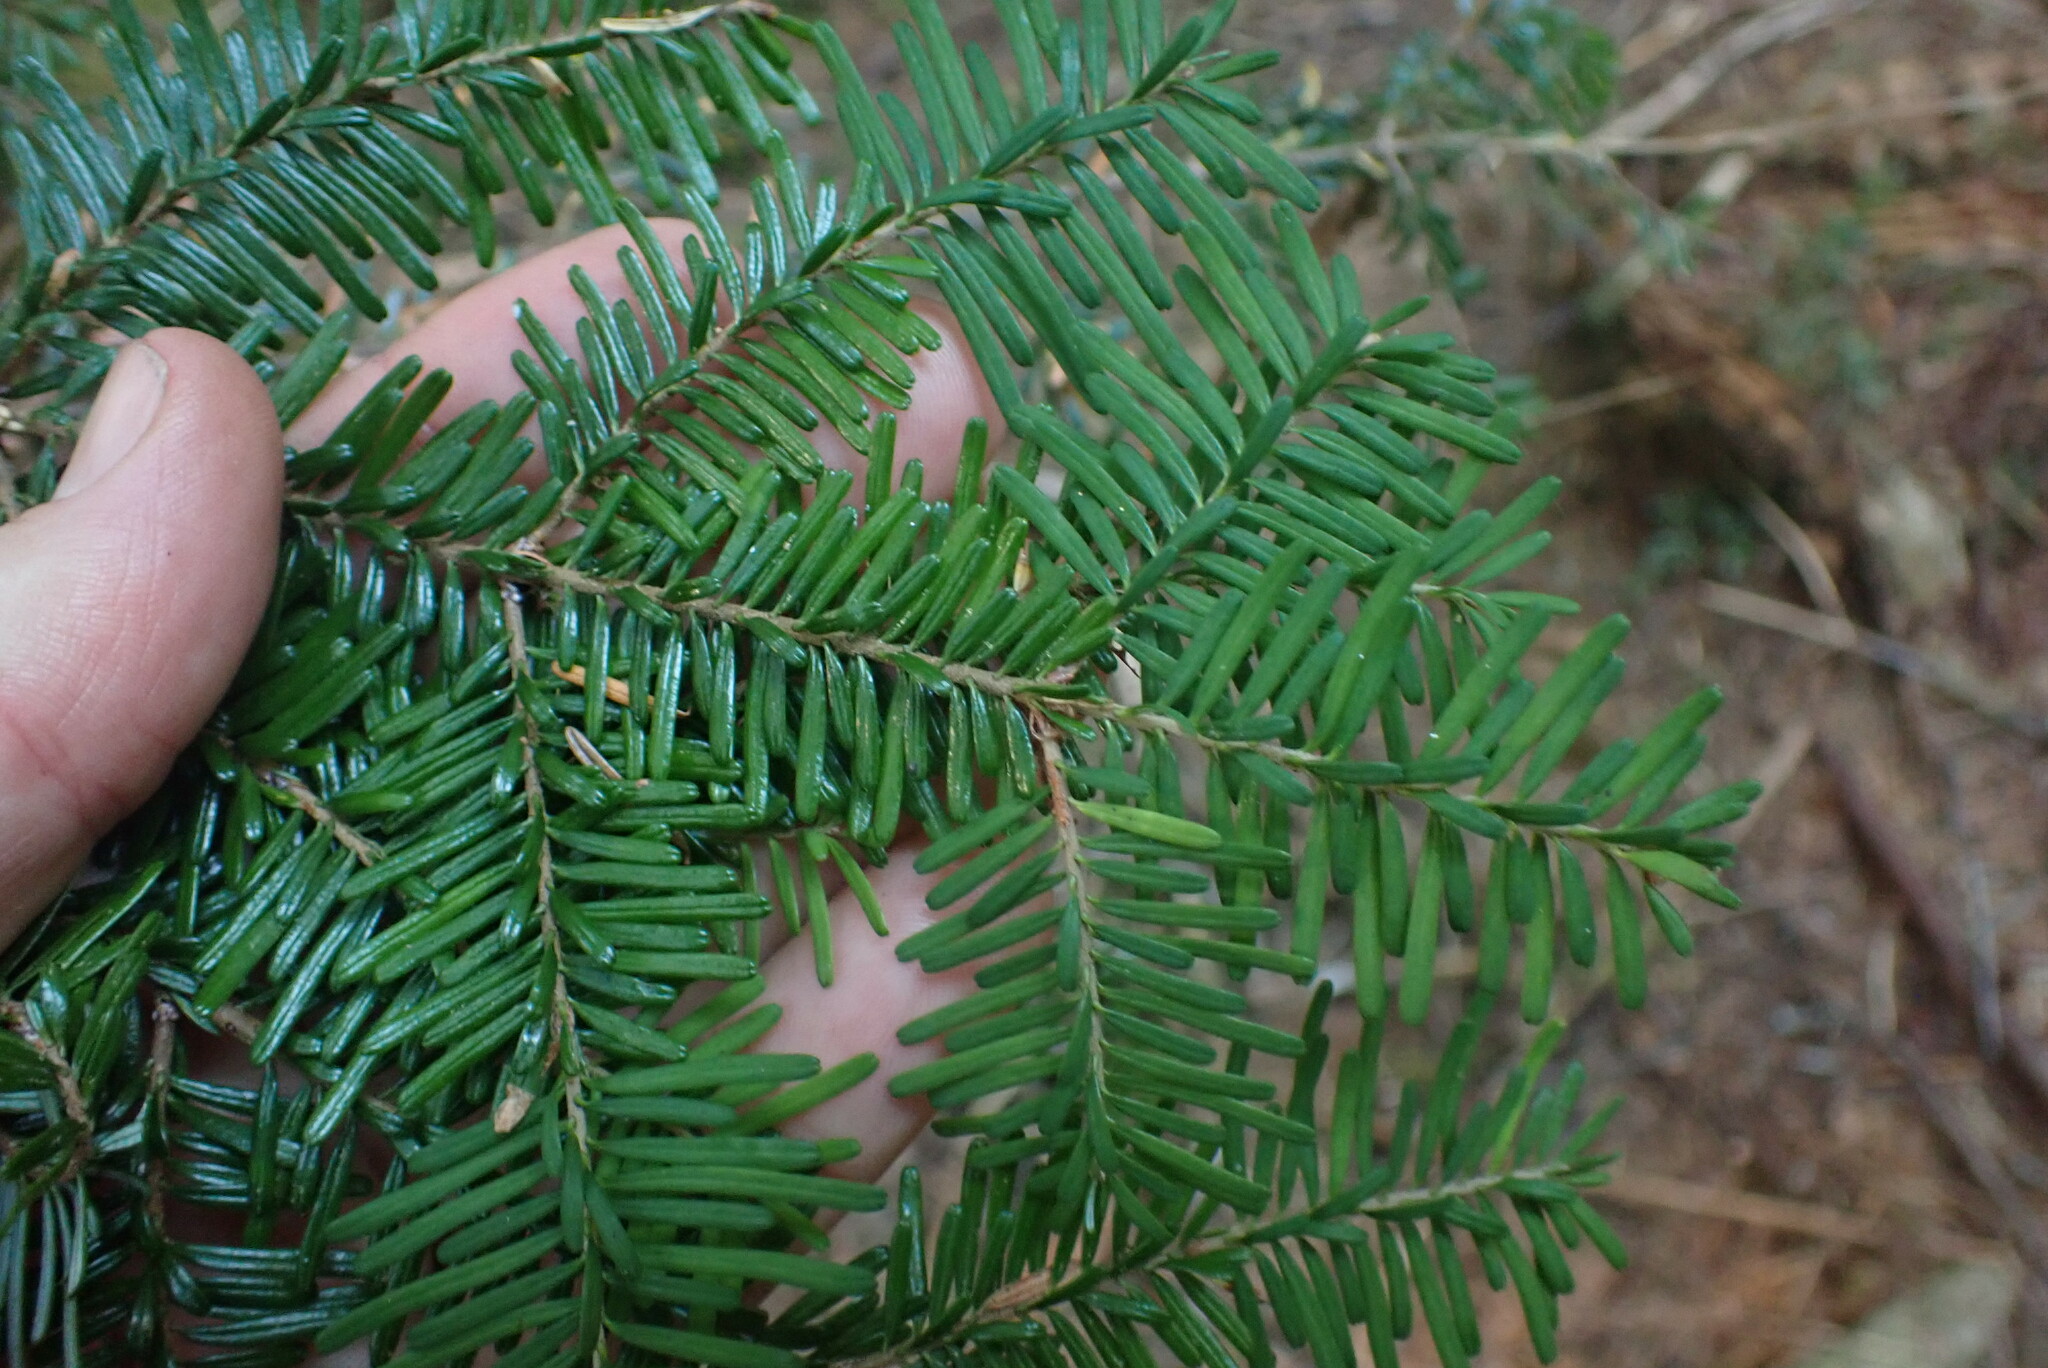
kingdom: Plantae
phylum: Tracheophyta
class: Pinopsida
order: Pinales
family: Pinaceae
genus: Abies
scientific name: Abies amabilis
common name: Pacific silver fir
